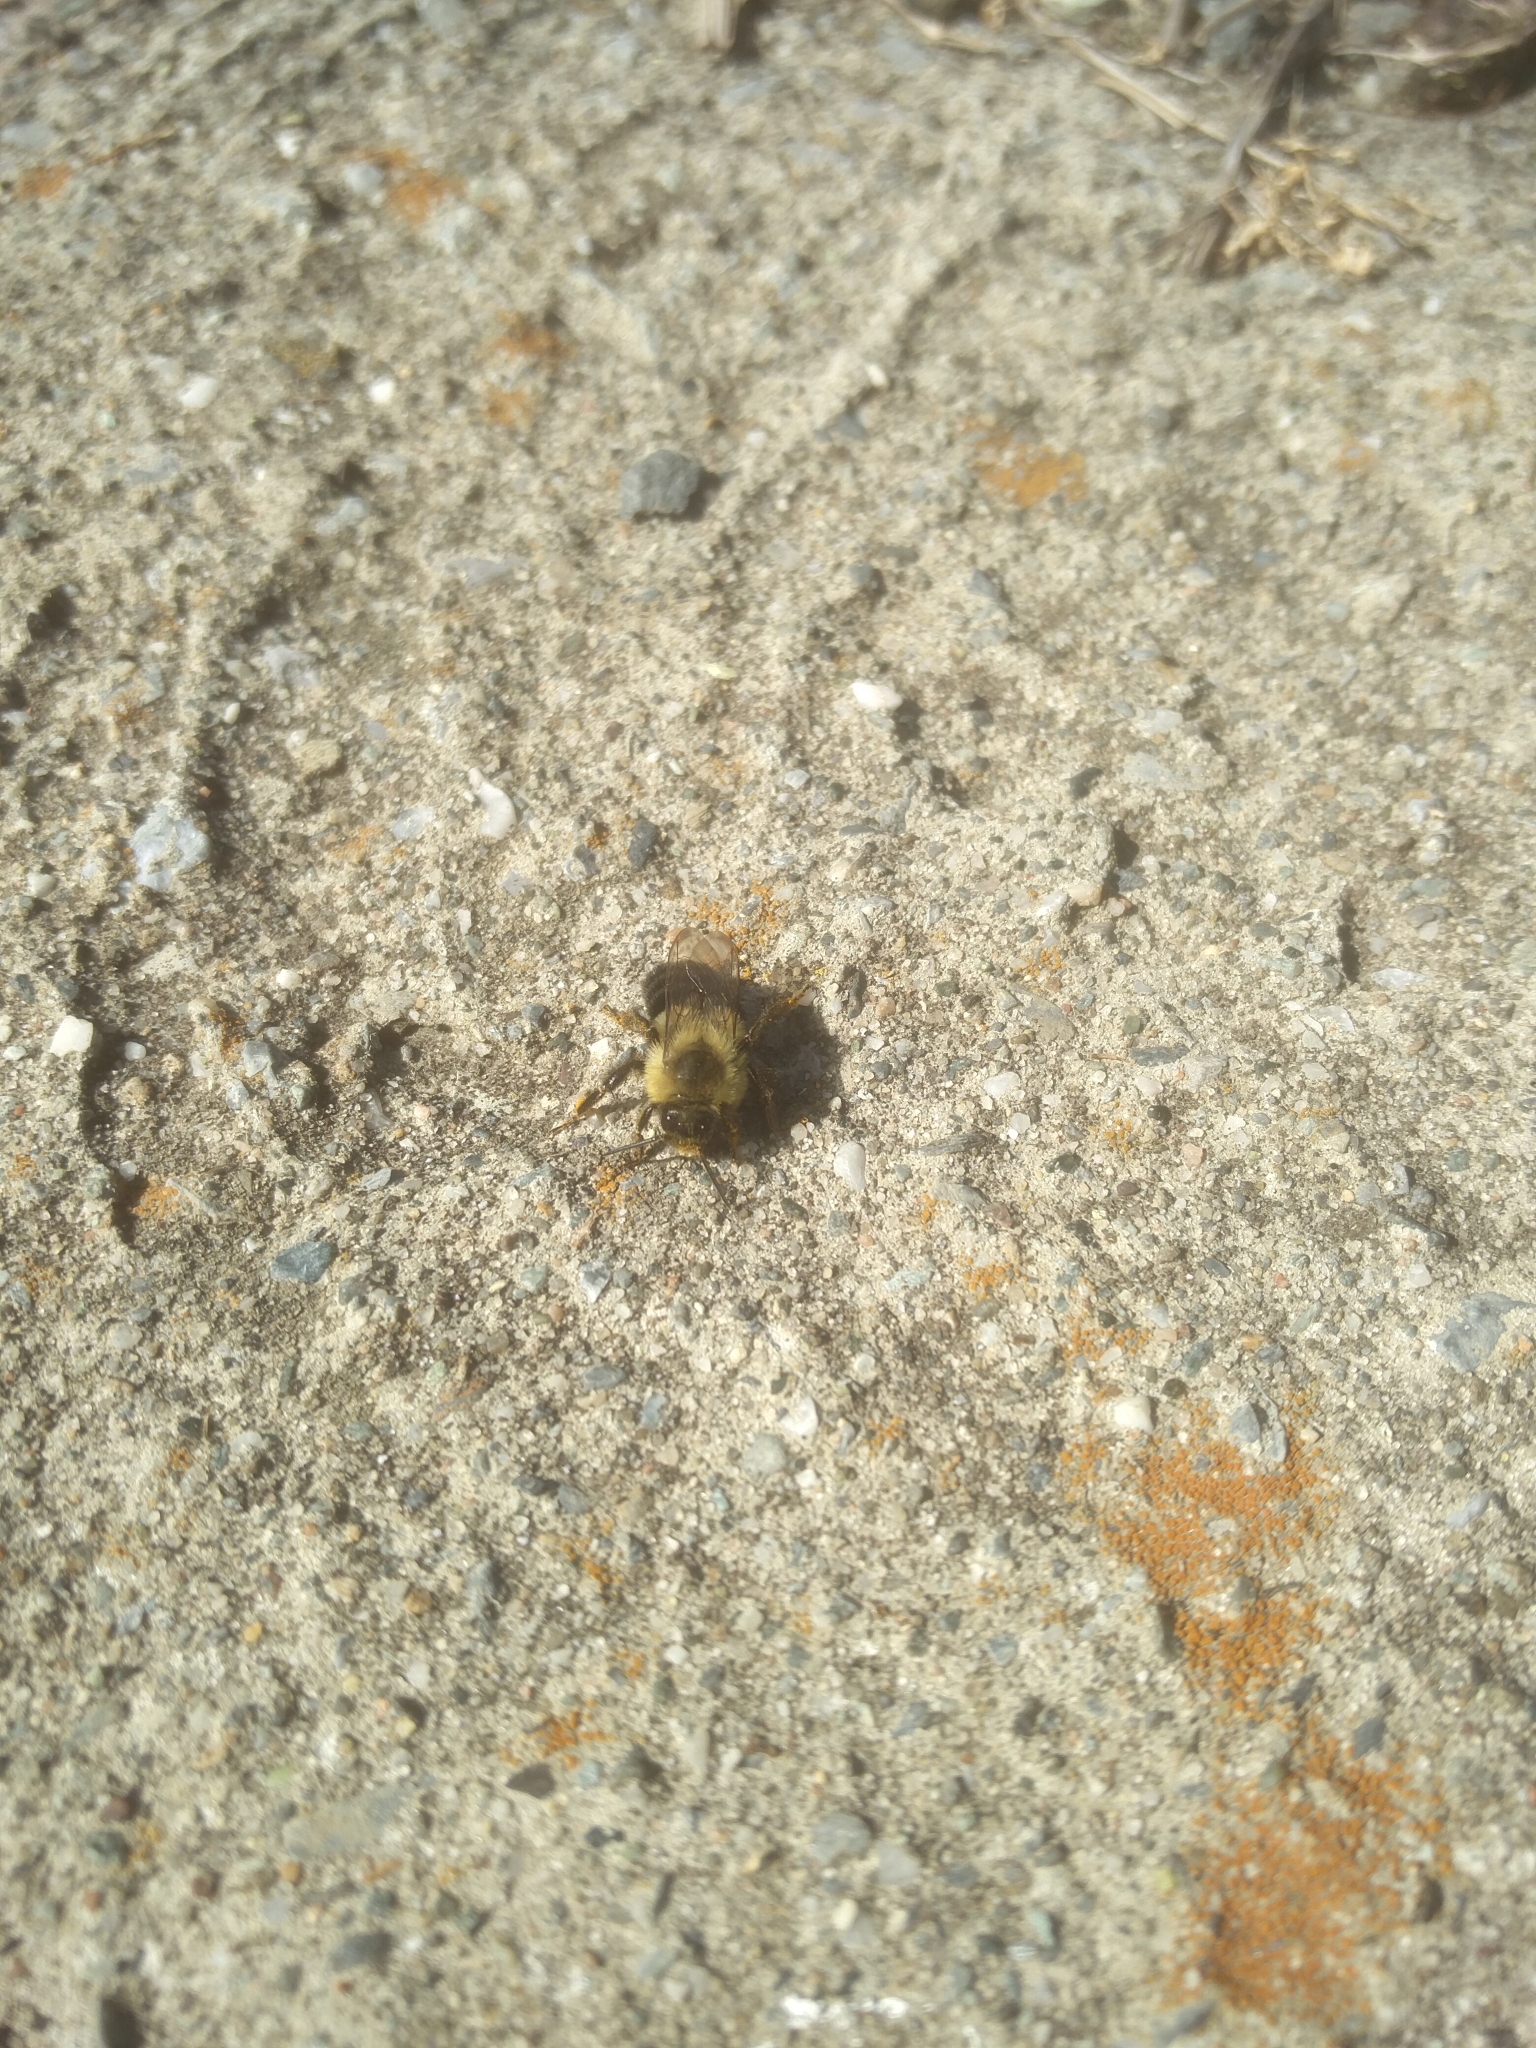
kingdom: Animalia
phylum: Arthropoda
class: Insecta
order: Hymenoptera
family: Apidae
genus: Bombus
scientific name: Bombus impatiens
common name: Common eastern bumble bee
